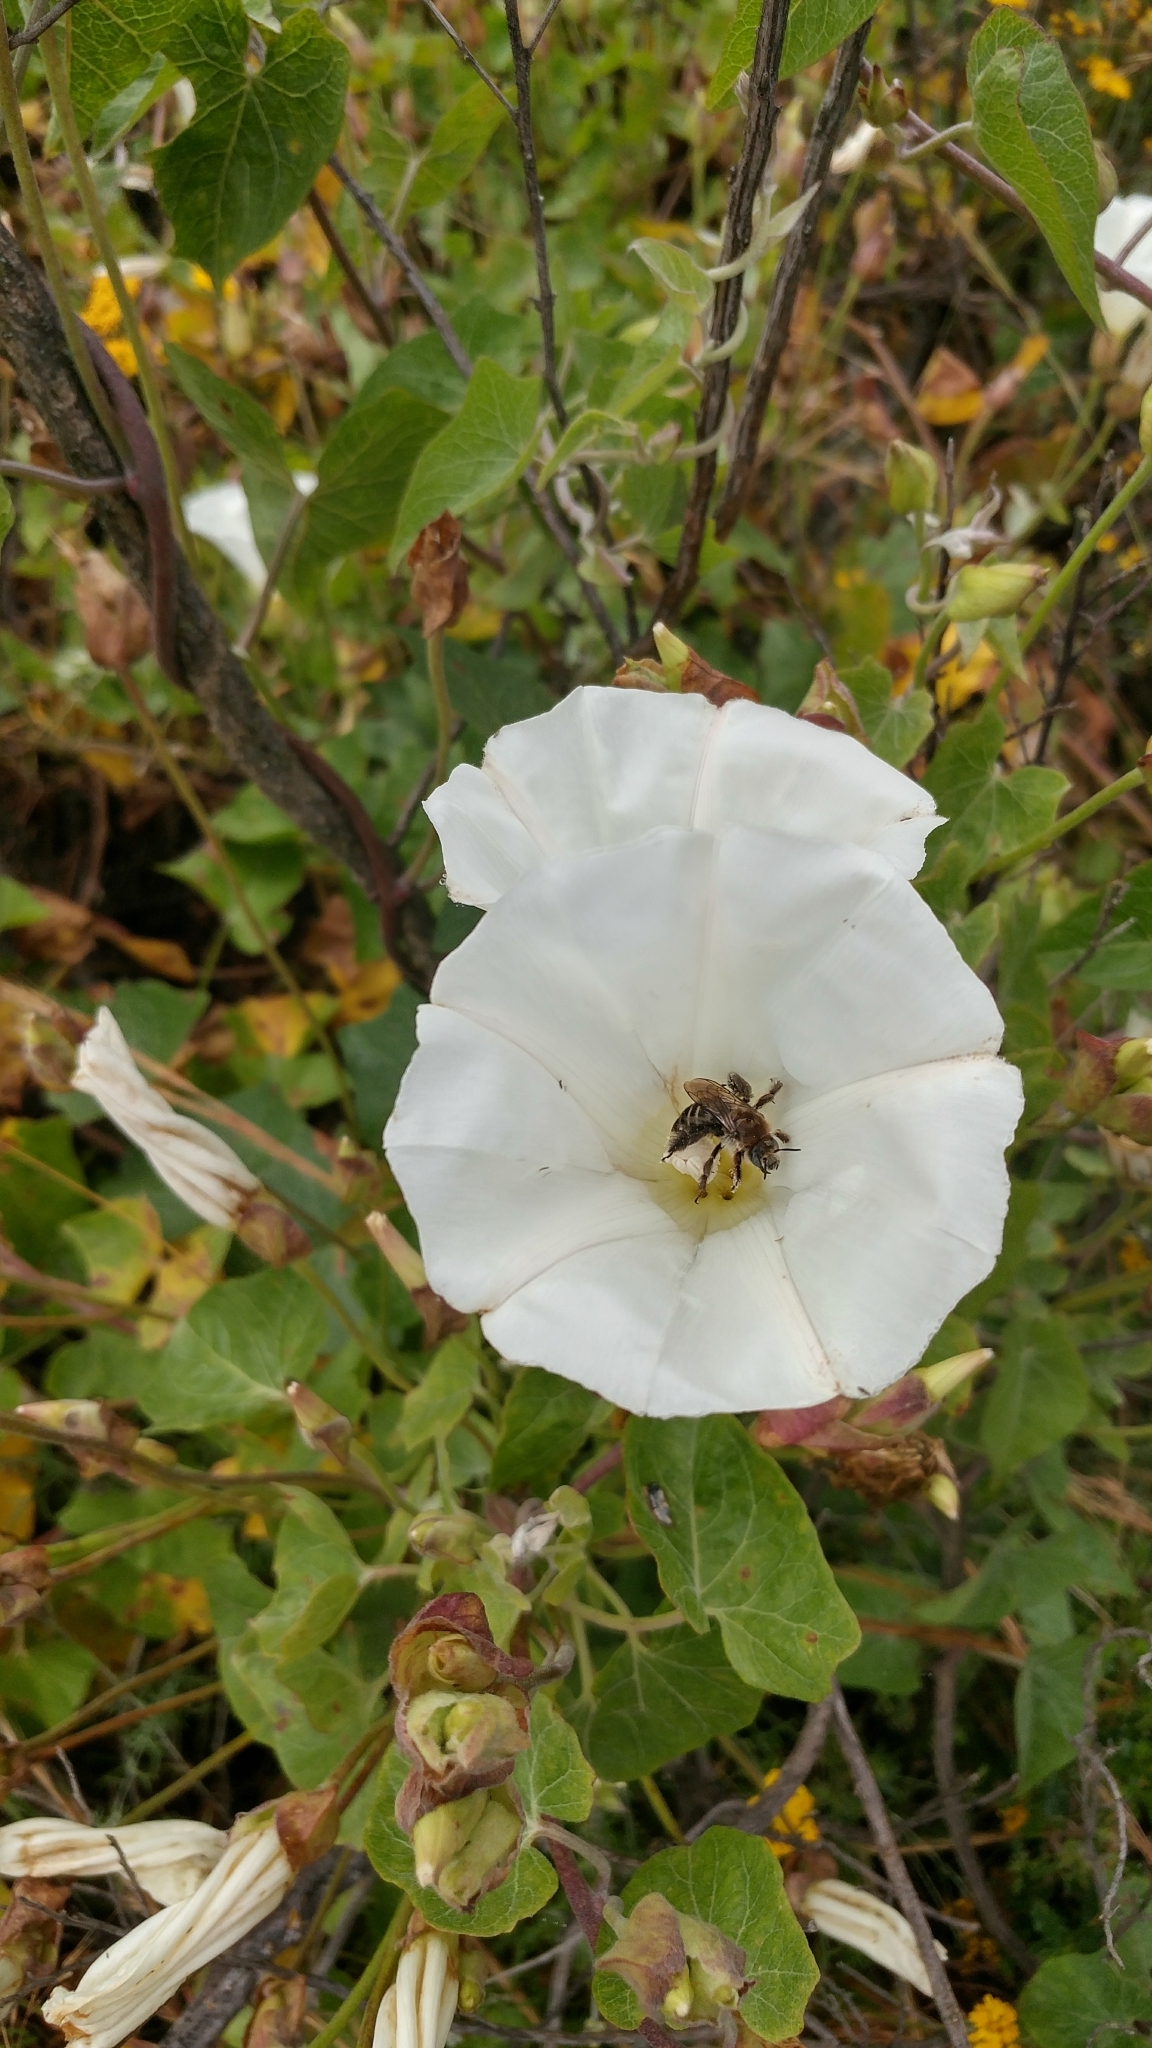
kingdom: Animalia
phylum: Arthropoda
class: Insecta
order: Hymenoptera
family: Apidae
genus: Diadasia
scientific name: Diadasia bituberculata
